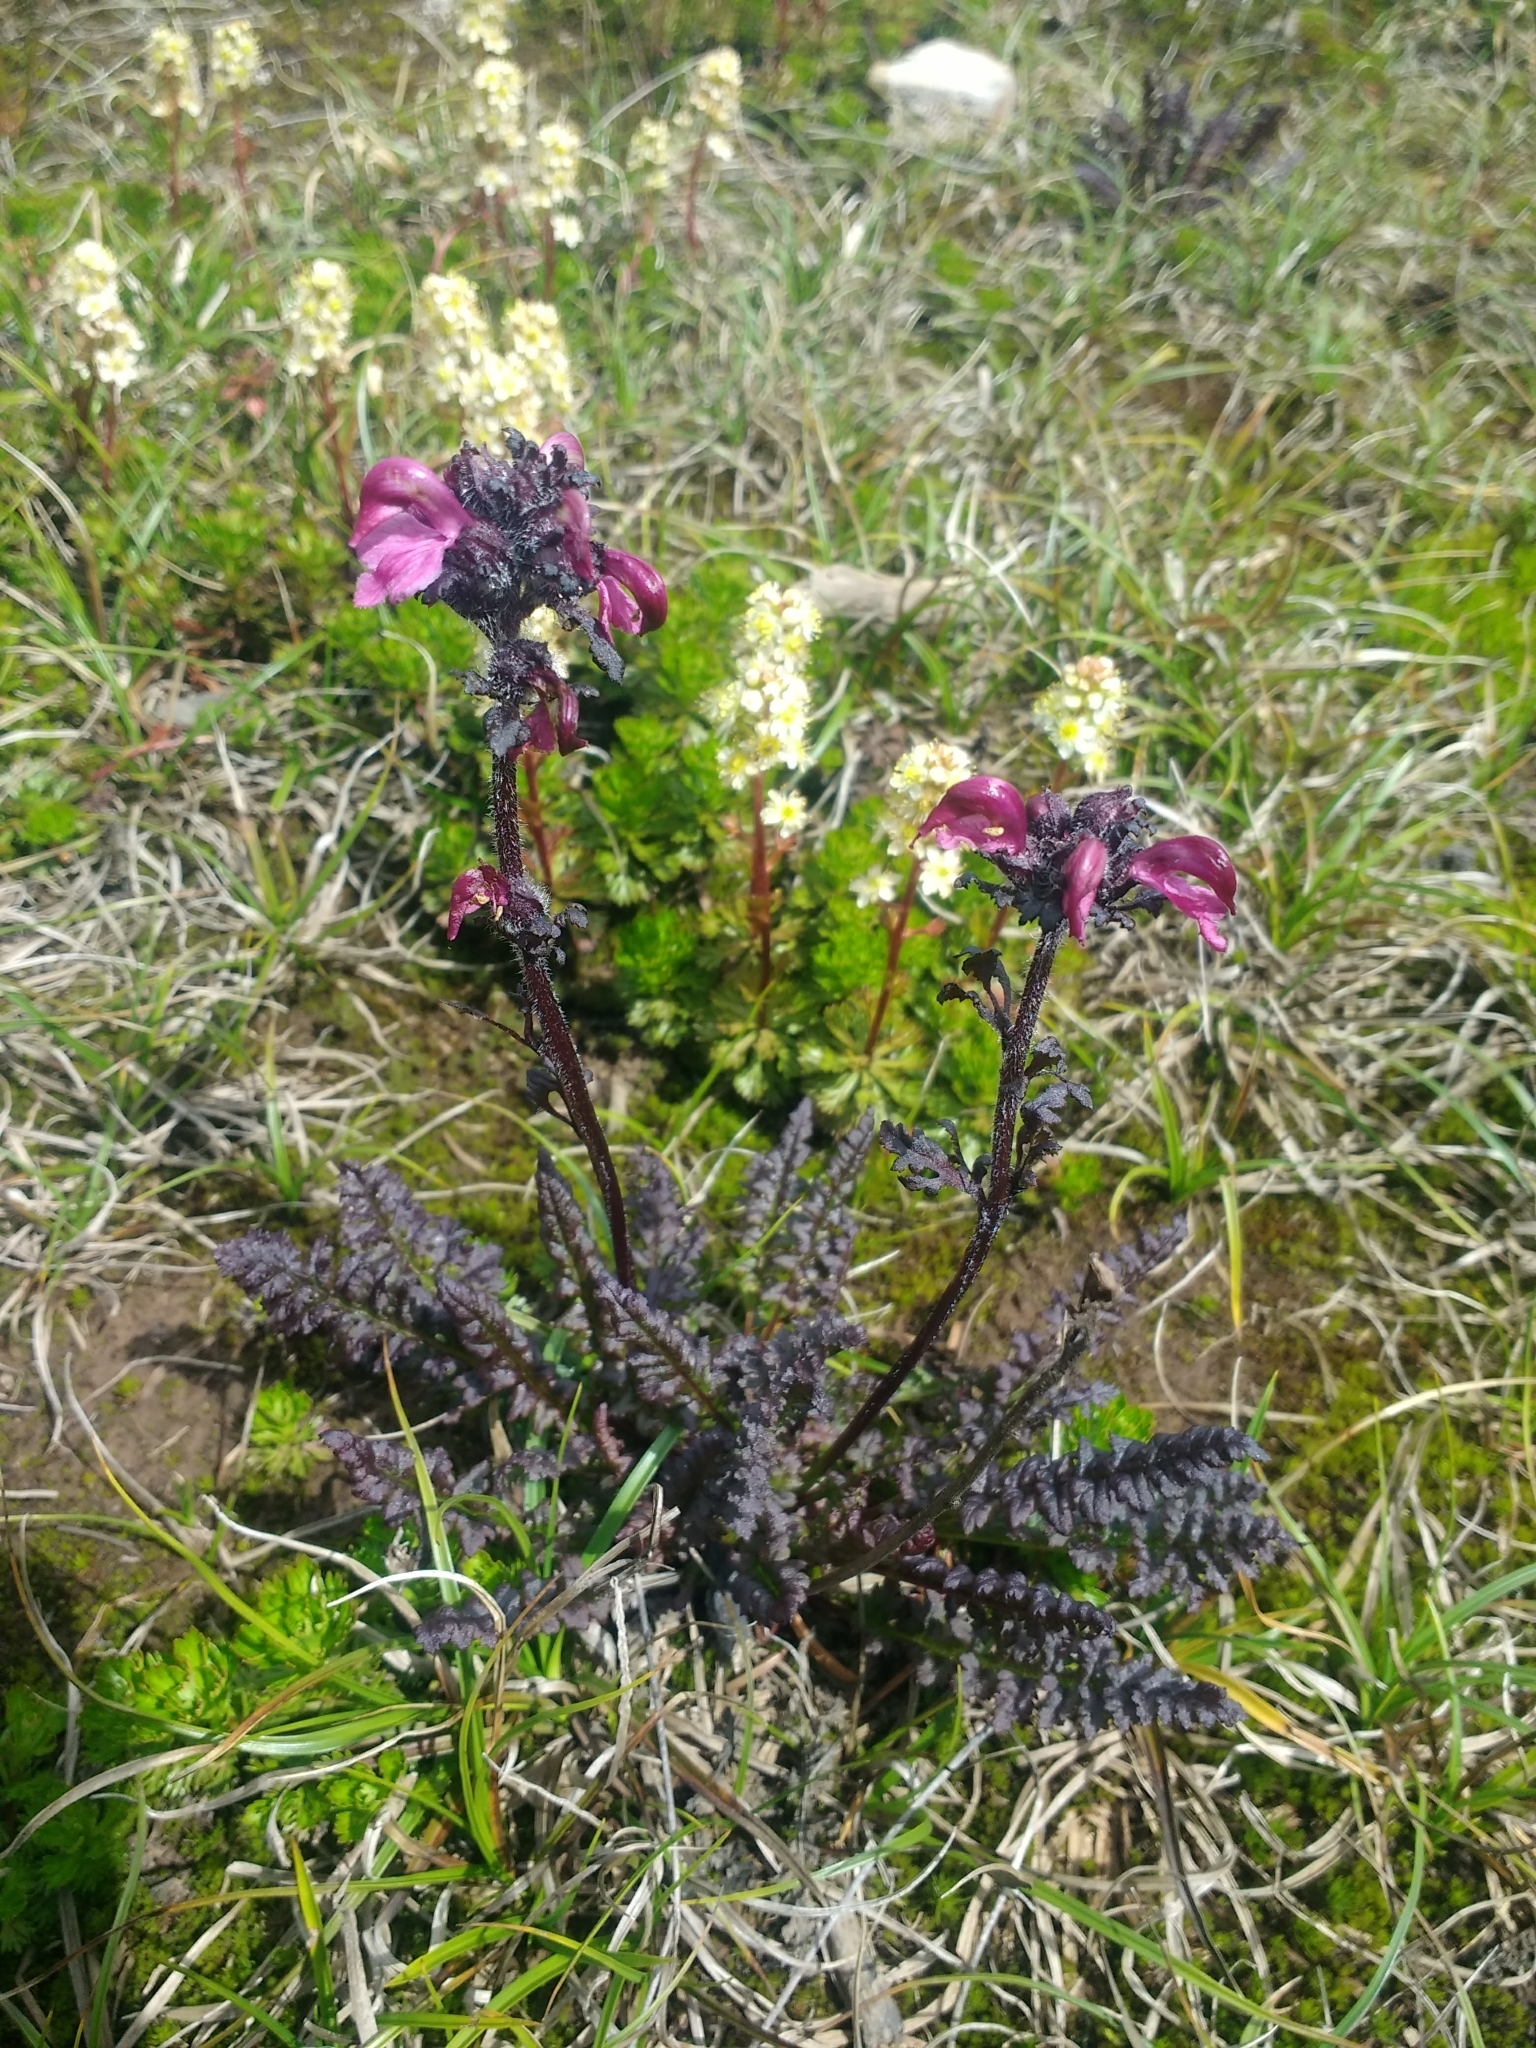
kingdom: Plantae
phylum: Tracheophyta
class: Magnoliopsida
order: Lamiales
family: Orobanchaceae
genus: Pedicularis
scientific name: Pedicularis ornithorhynchos
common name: Bird's-beak lousewort
